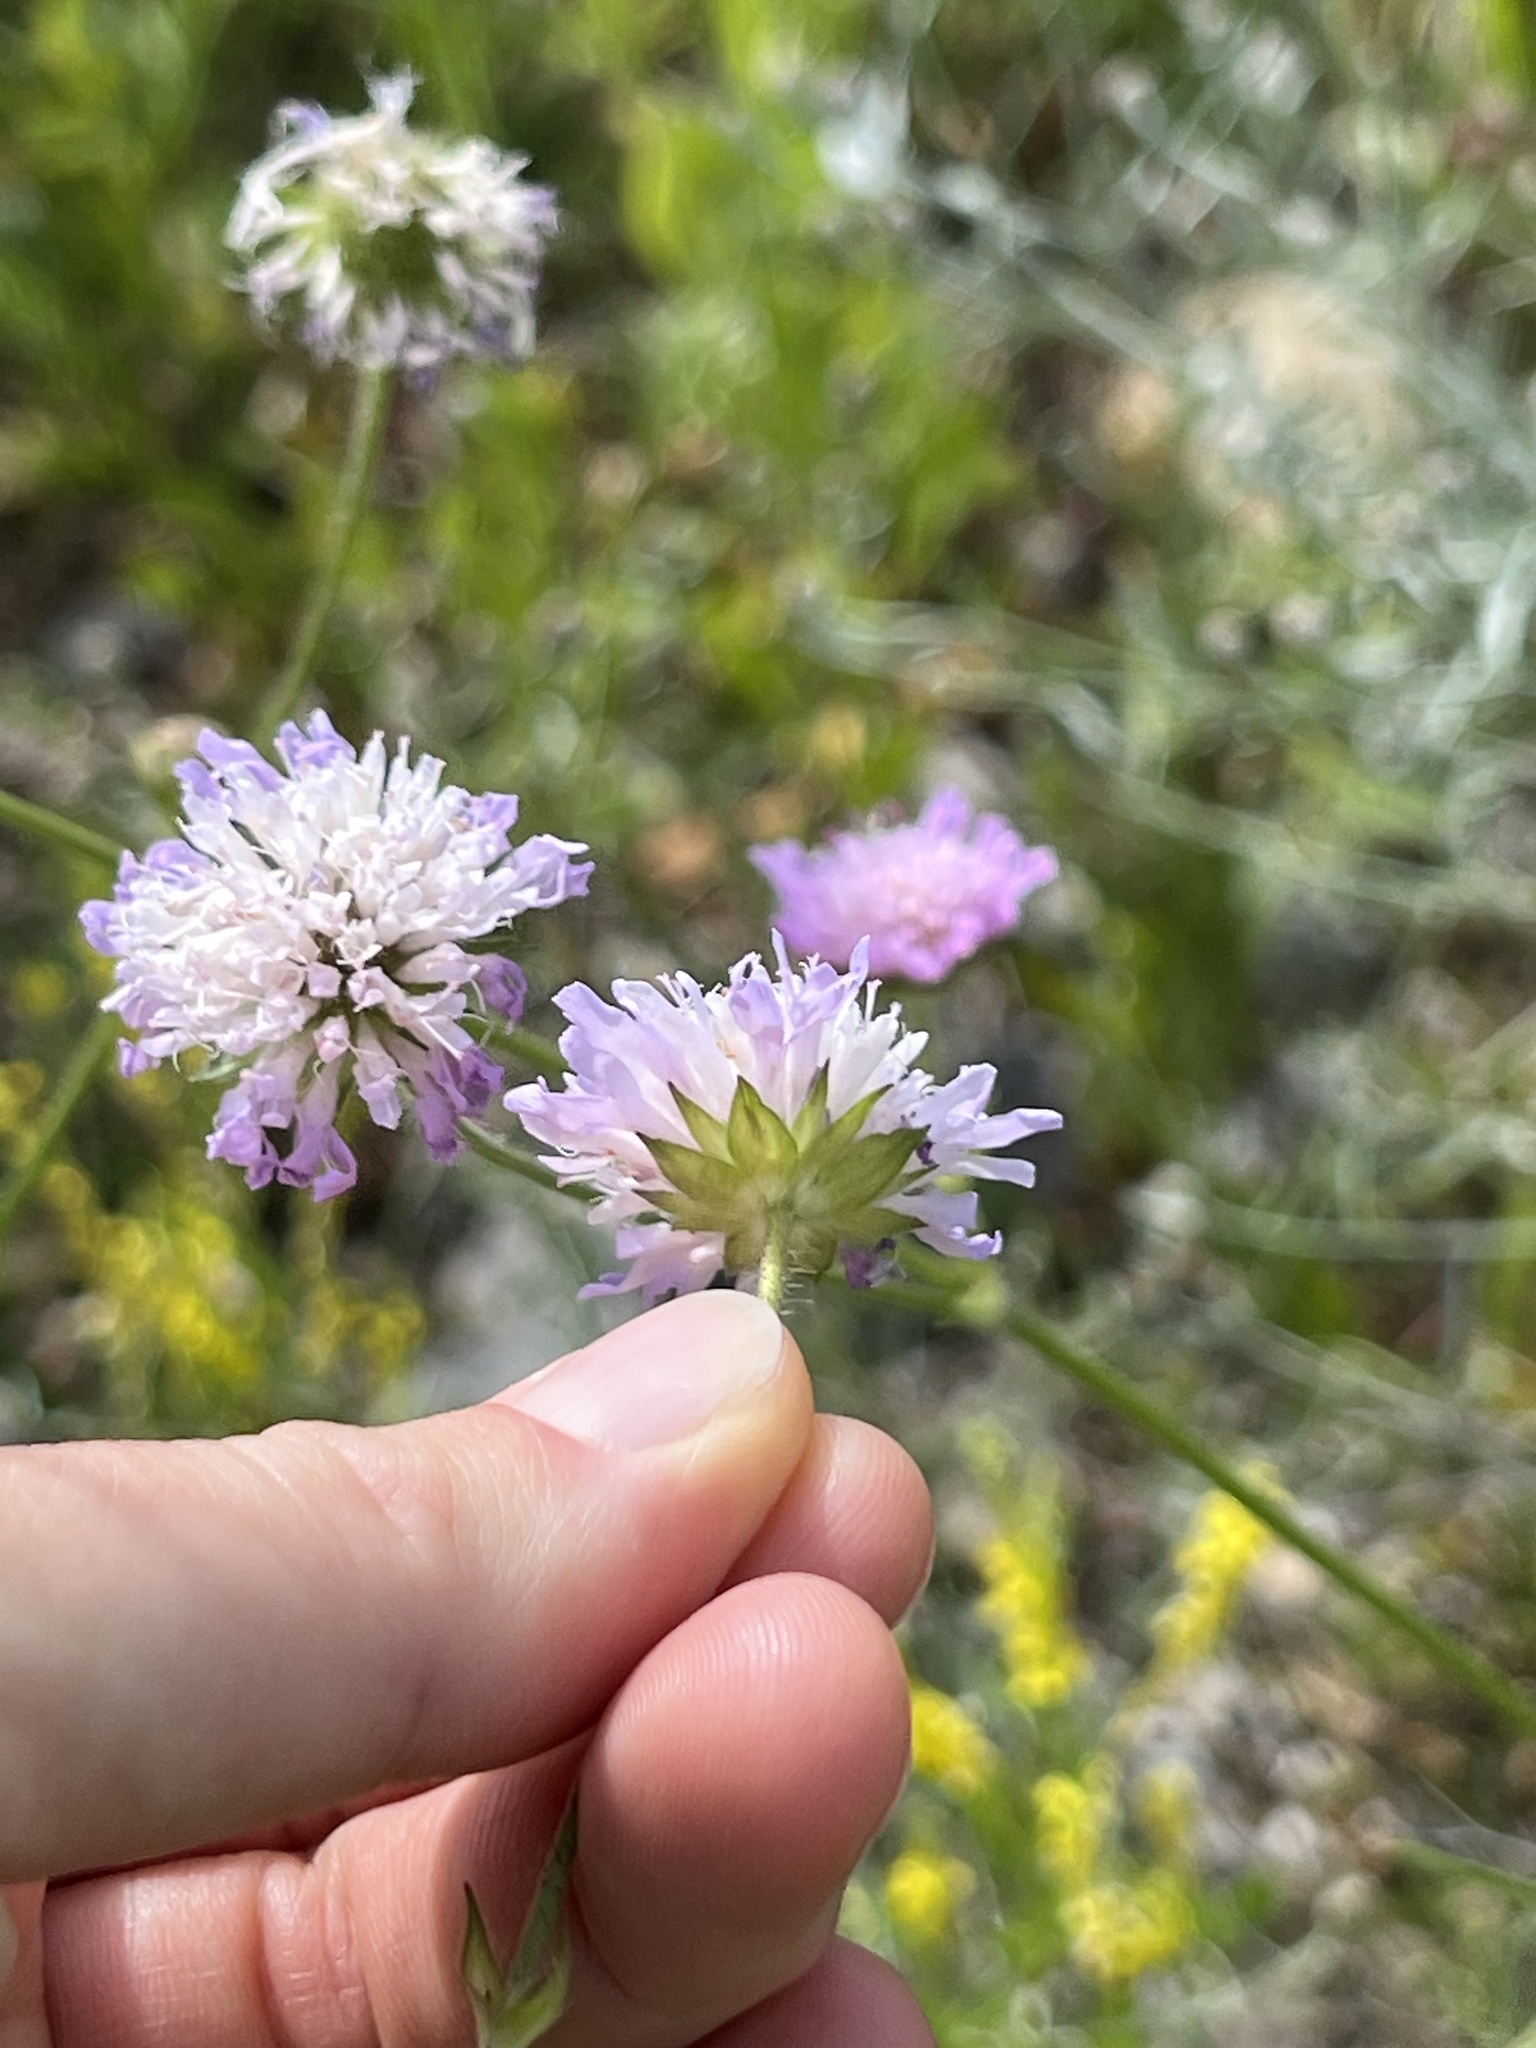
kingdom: Plantae
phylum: Tracheophyta
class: Magnoliopsida
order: Dipsacales
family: Caprifoliaceae
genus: Knautia
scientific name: Knautia arvensis
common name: Field scabiosa
